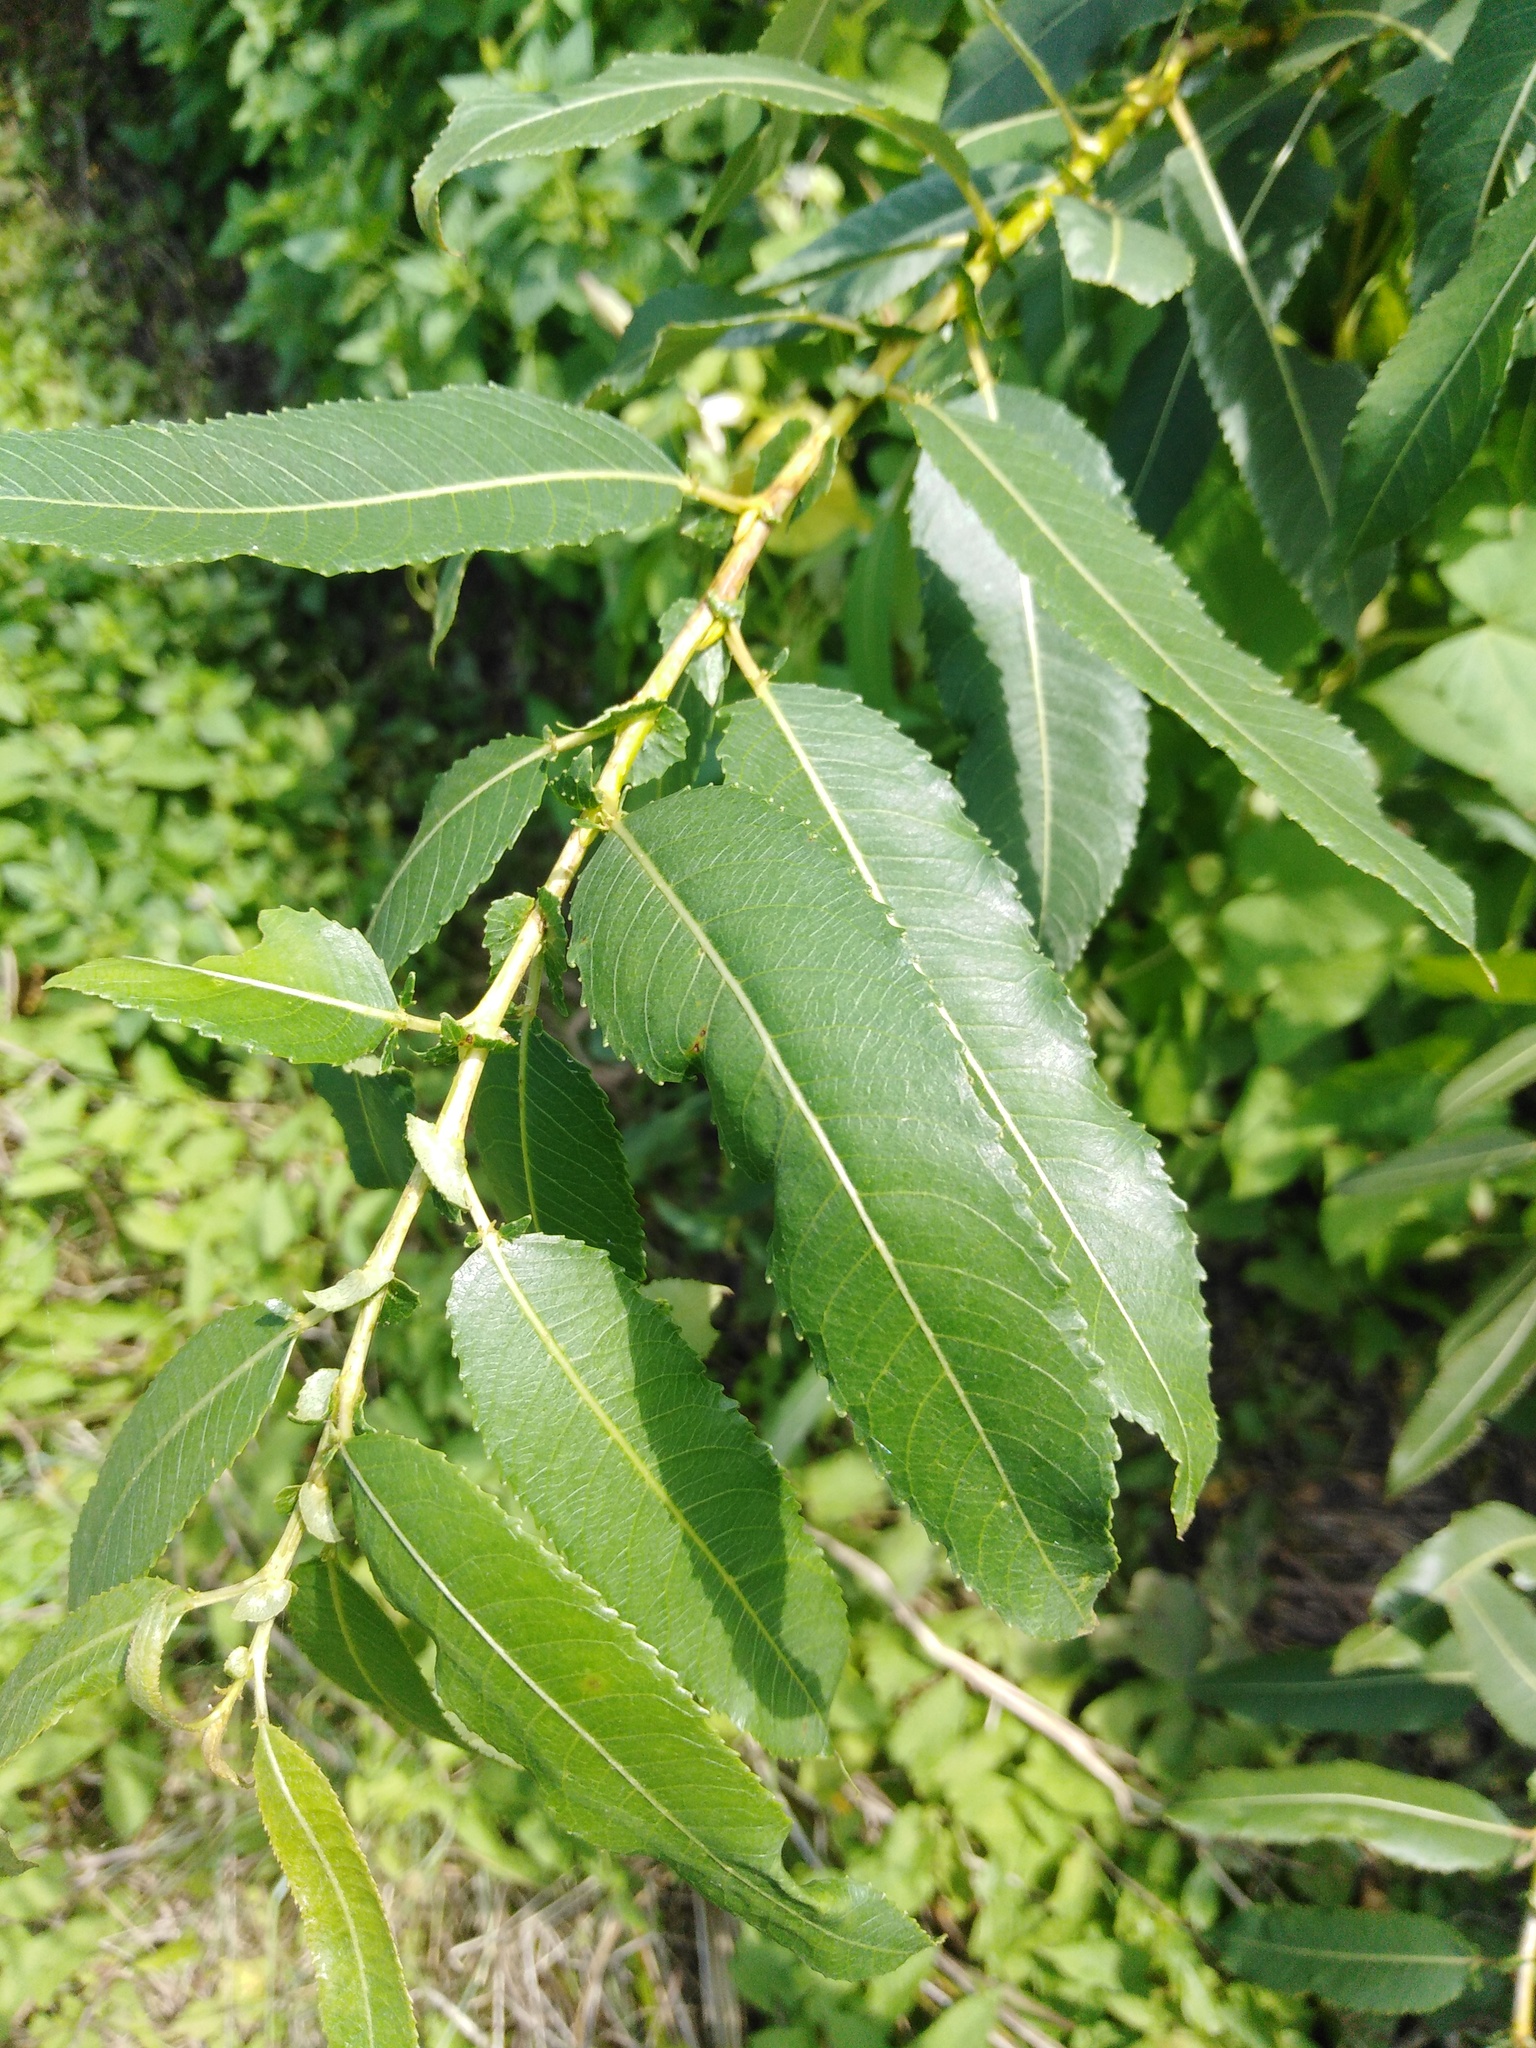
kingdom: Plantae
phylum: Tracheophyta
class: Magnoliopsida
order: Malpighiales
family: Salicaceae
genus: Salix
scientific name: Salix triandra
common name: Almond willow
